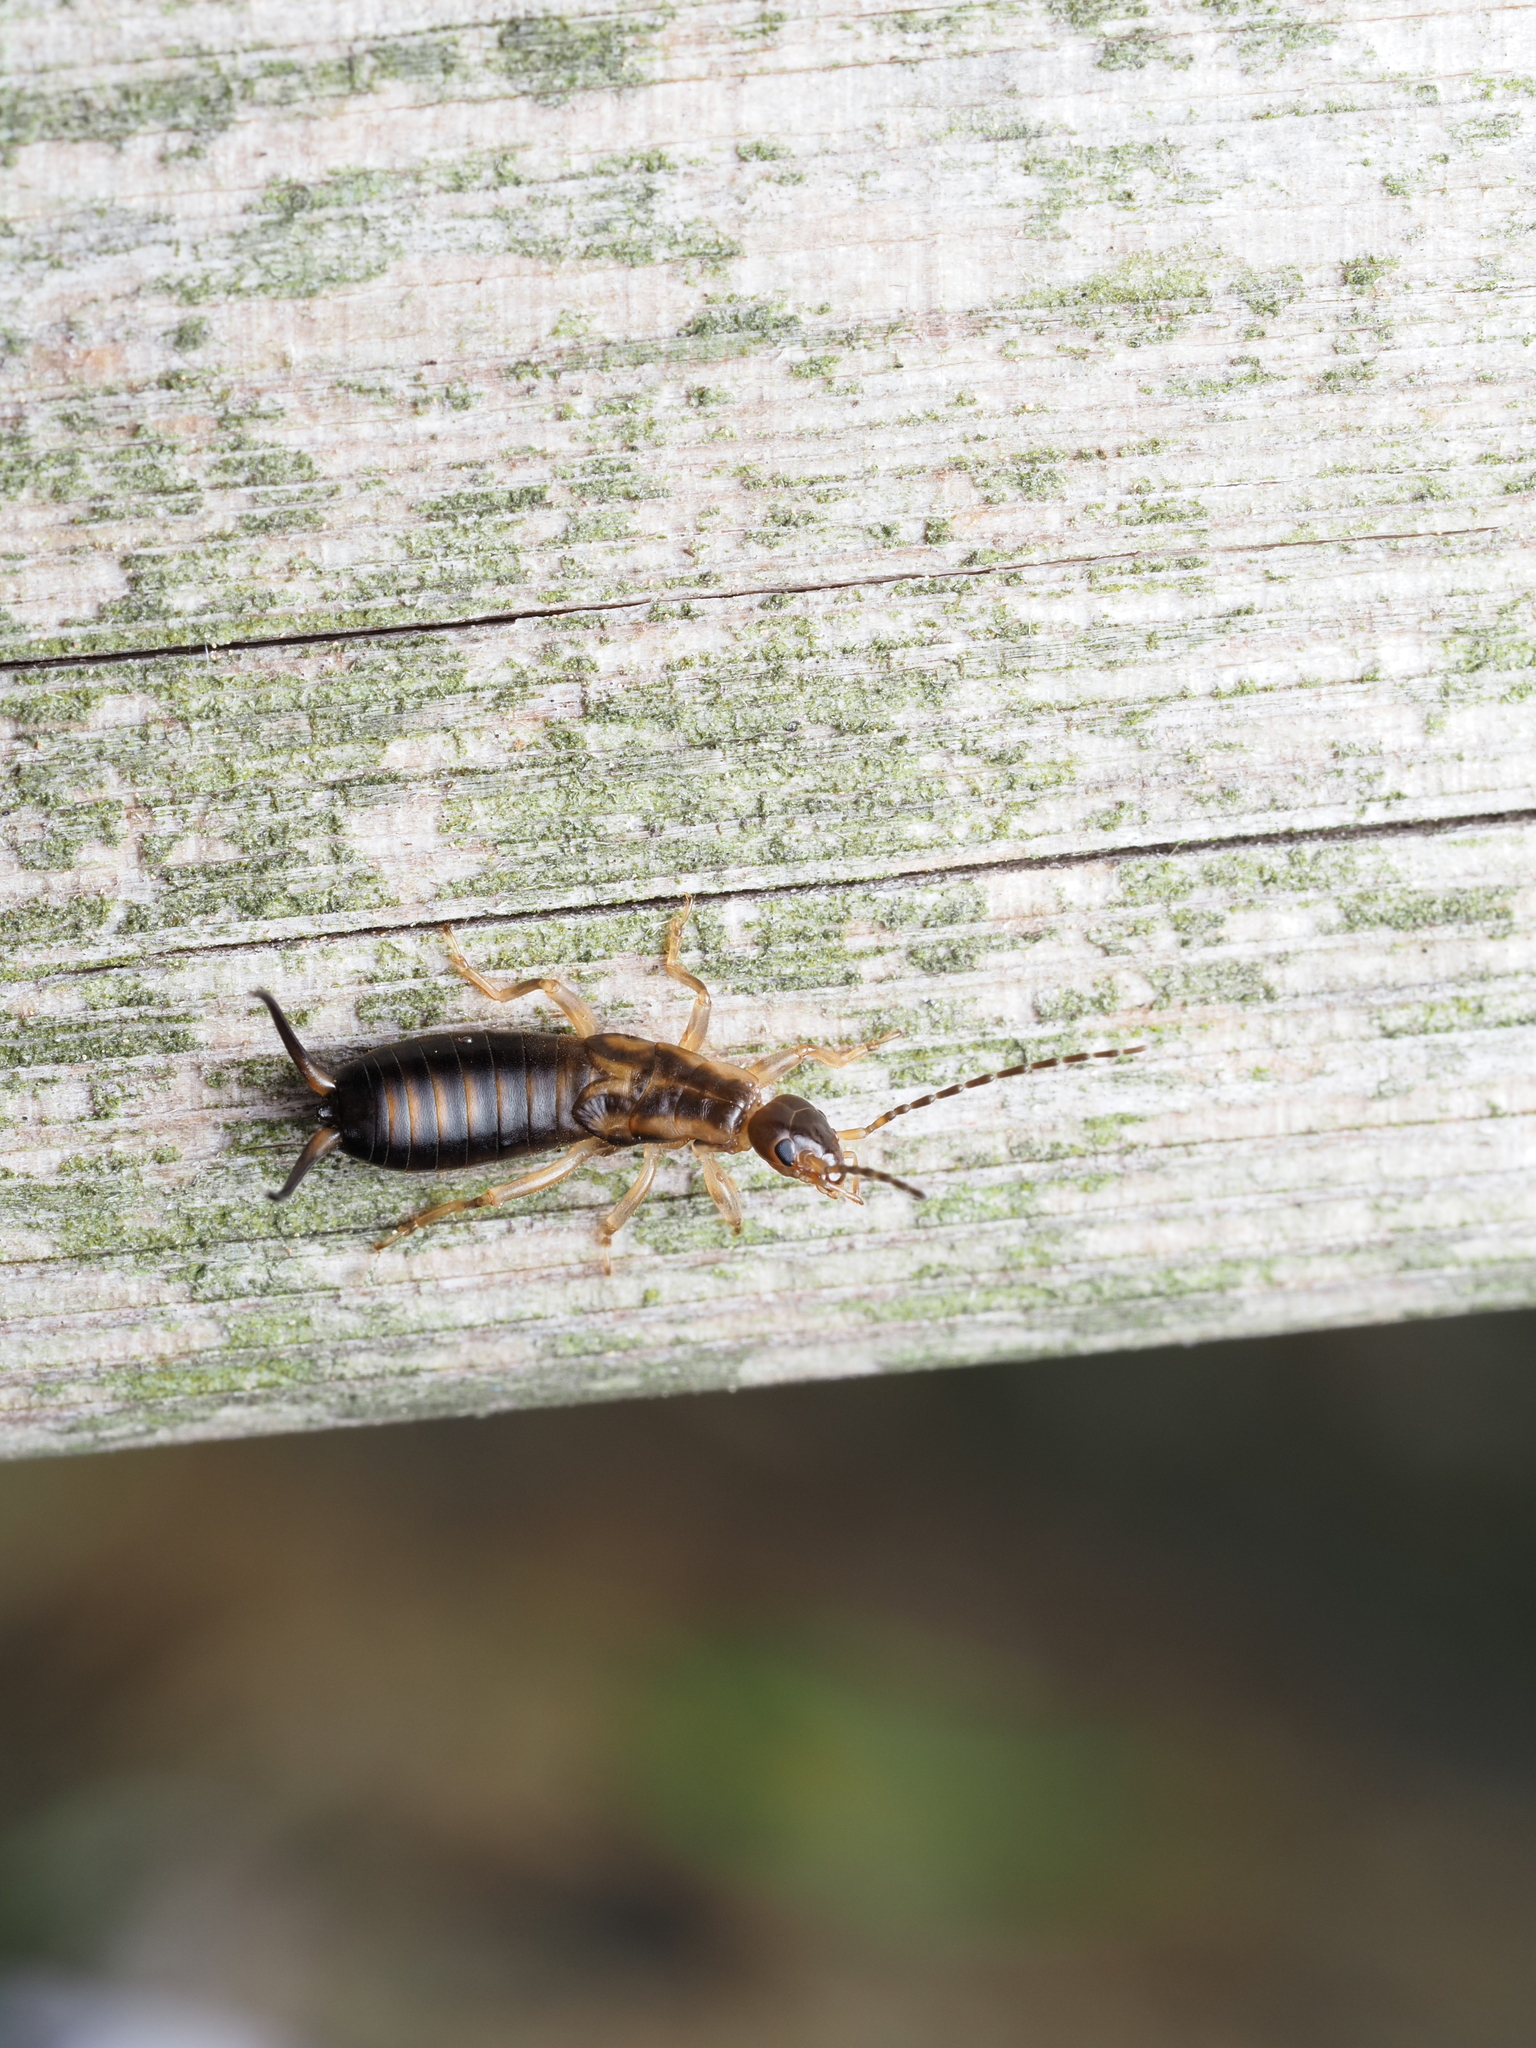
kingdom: Animalia
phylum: Arthropoda
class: Insecta
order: Dermaptera
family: Forficulidae
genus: Forficula
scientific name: Forficula
